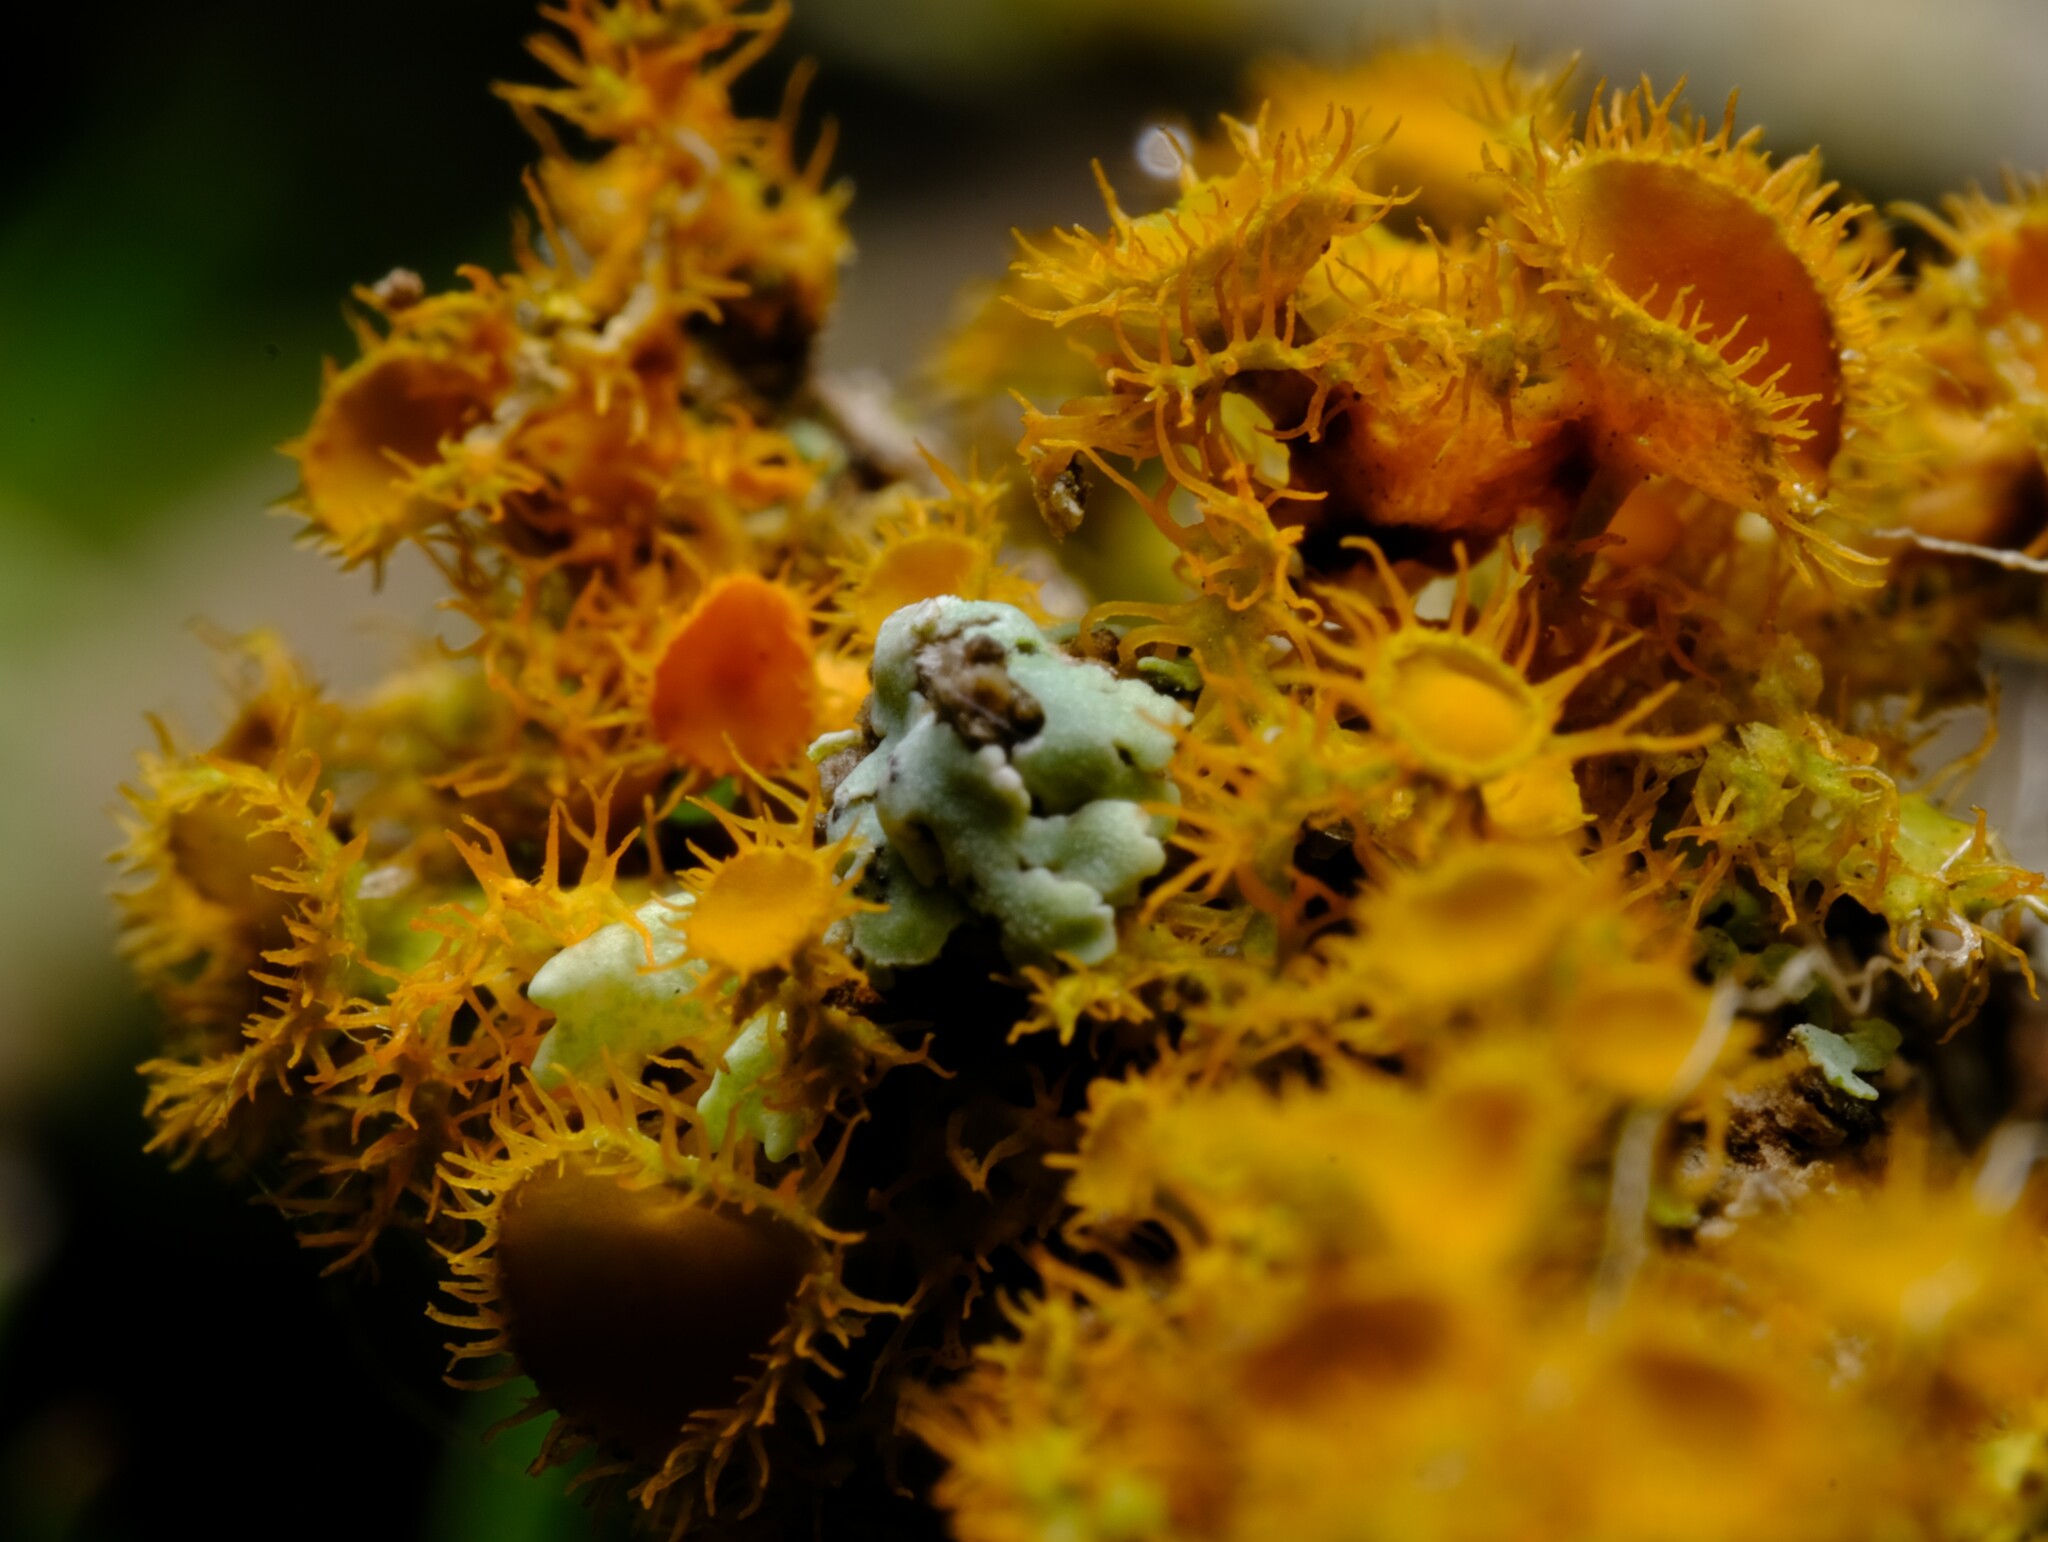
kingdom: Fungi
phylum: Ascomycota
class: Lecanoromycetes
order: Teloschistales
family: Teloschistaceae
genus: Niorma
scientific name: Niorma chrysophthalma
